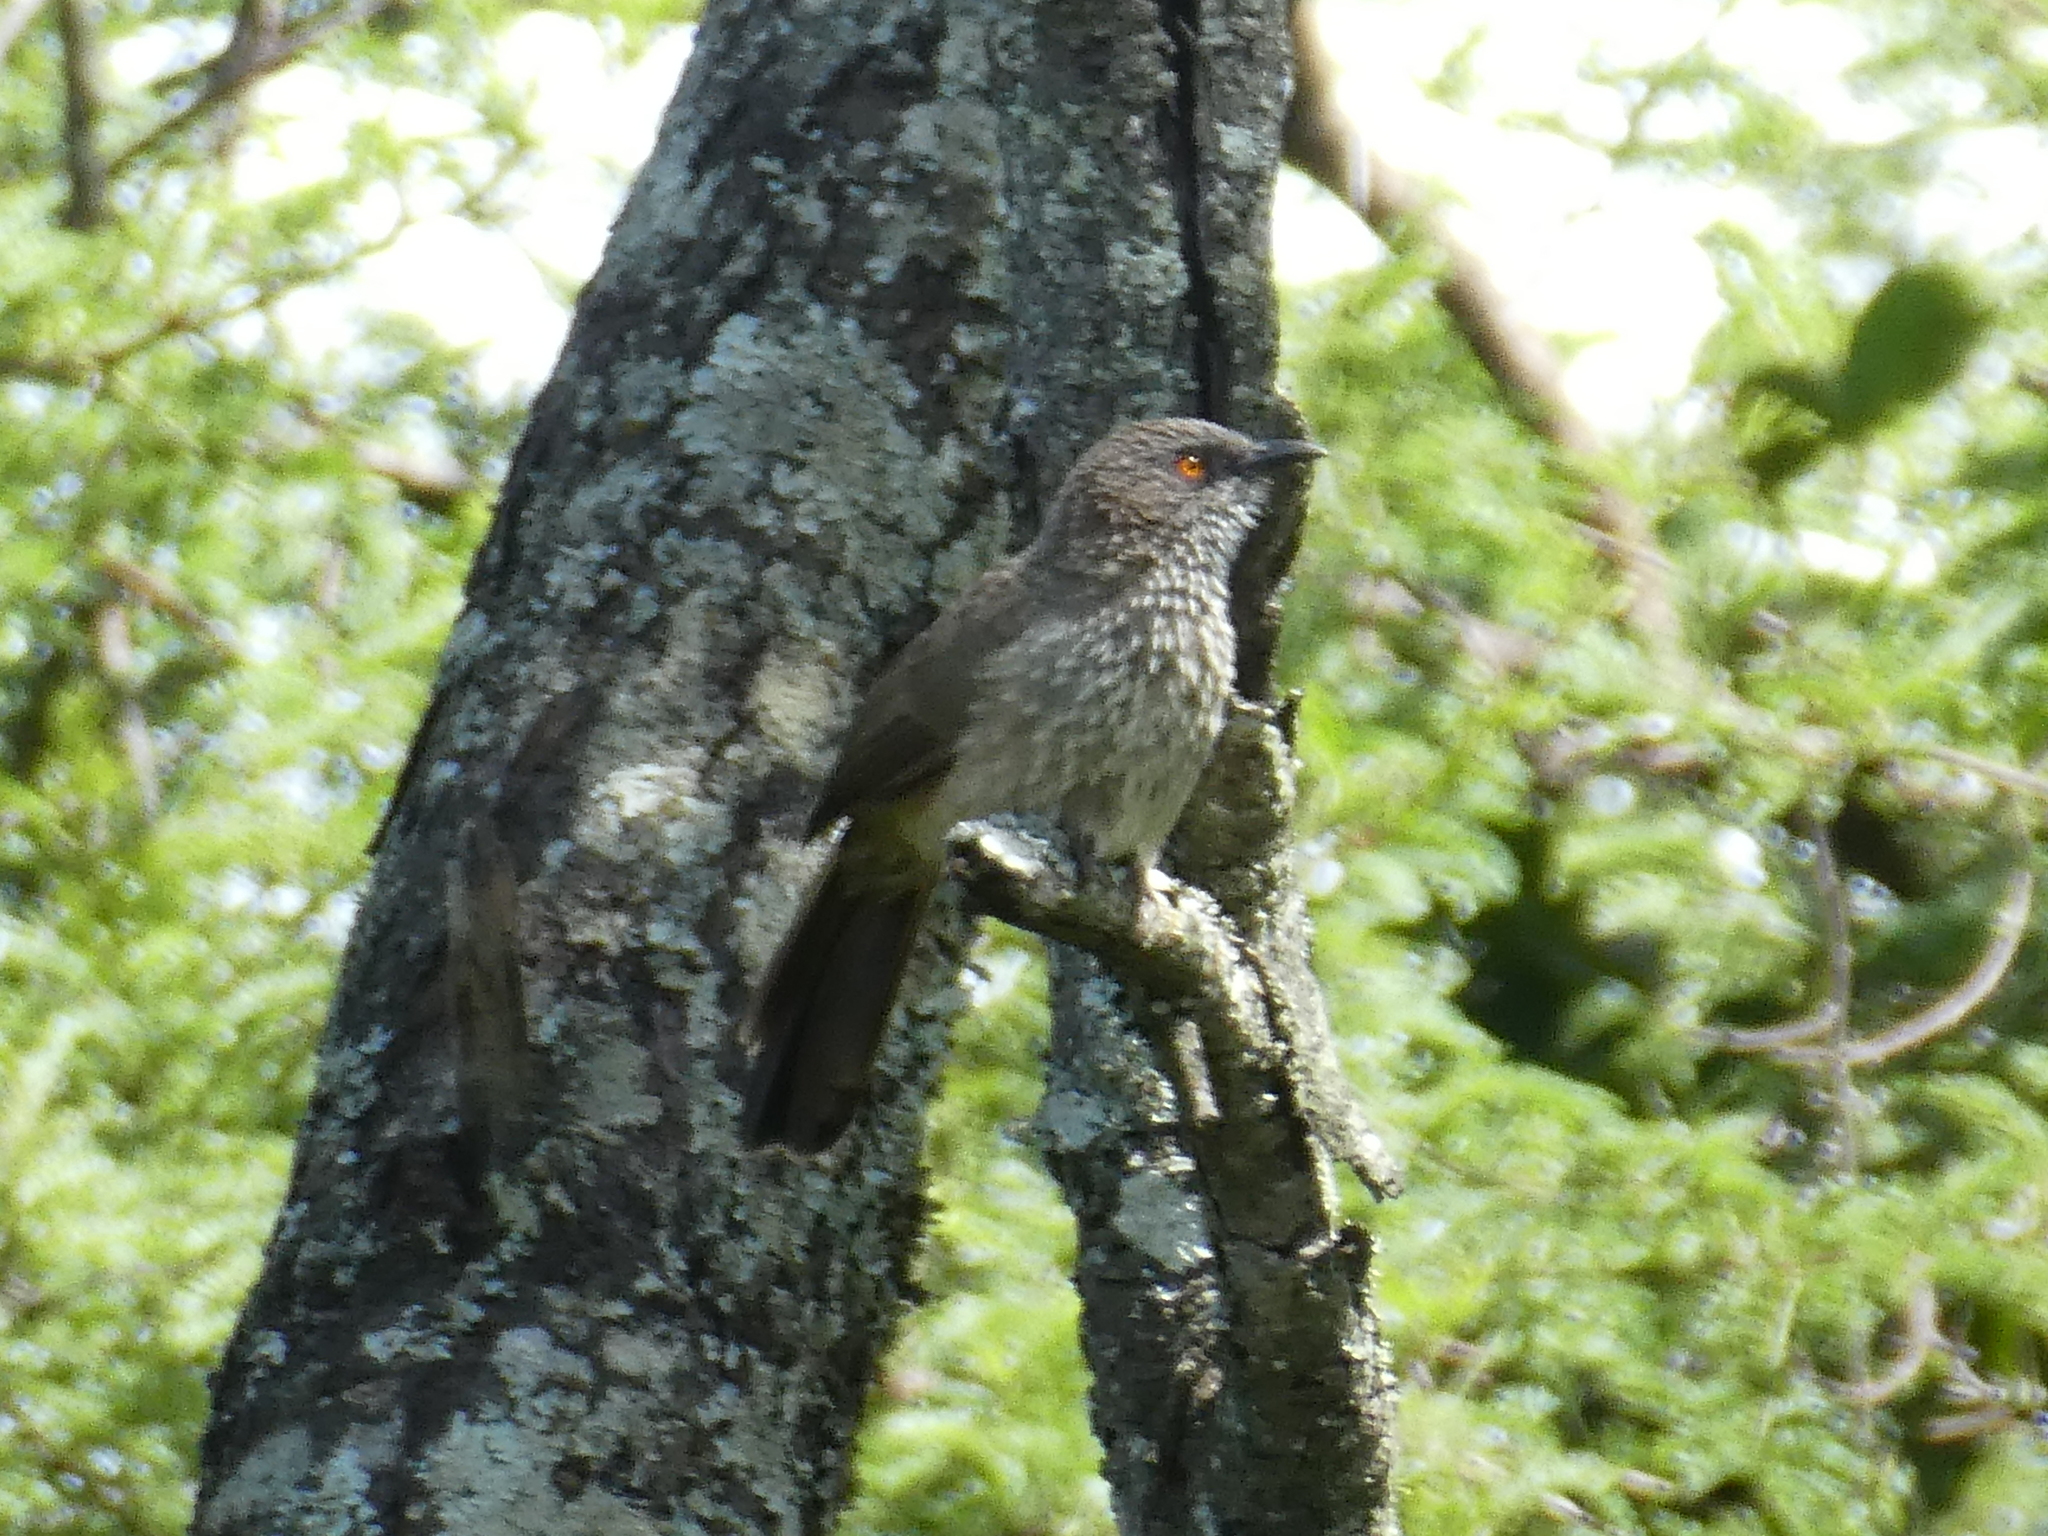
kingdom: Animalia
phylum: Chordata
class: Aves
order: Passeriformes
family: Leiothrichidae
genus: Turdoides
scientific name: Turdoides jardineii
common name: Arrow-marked babbler
